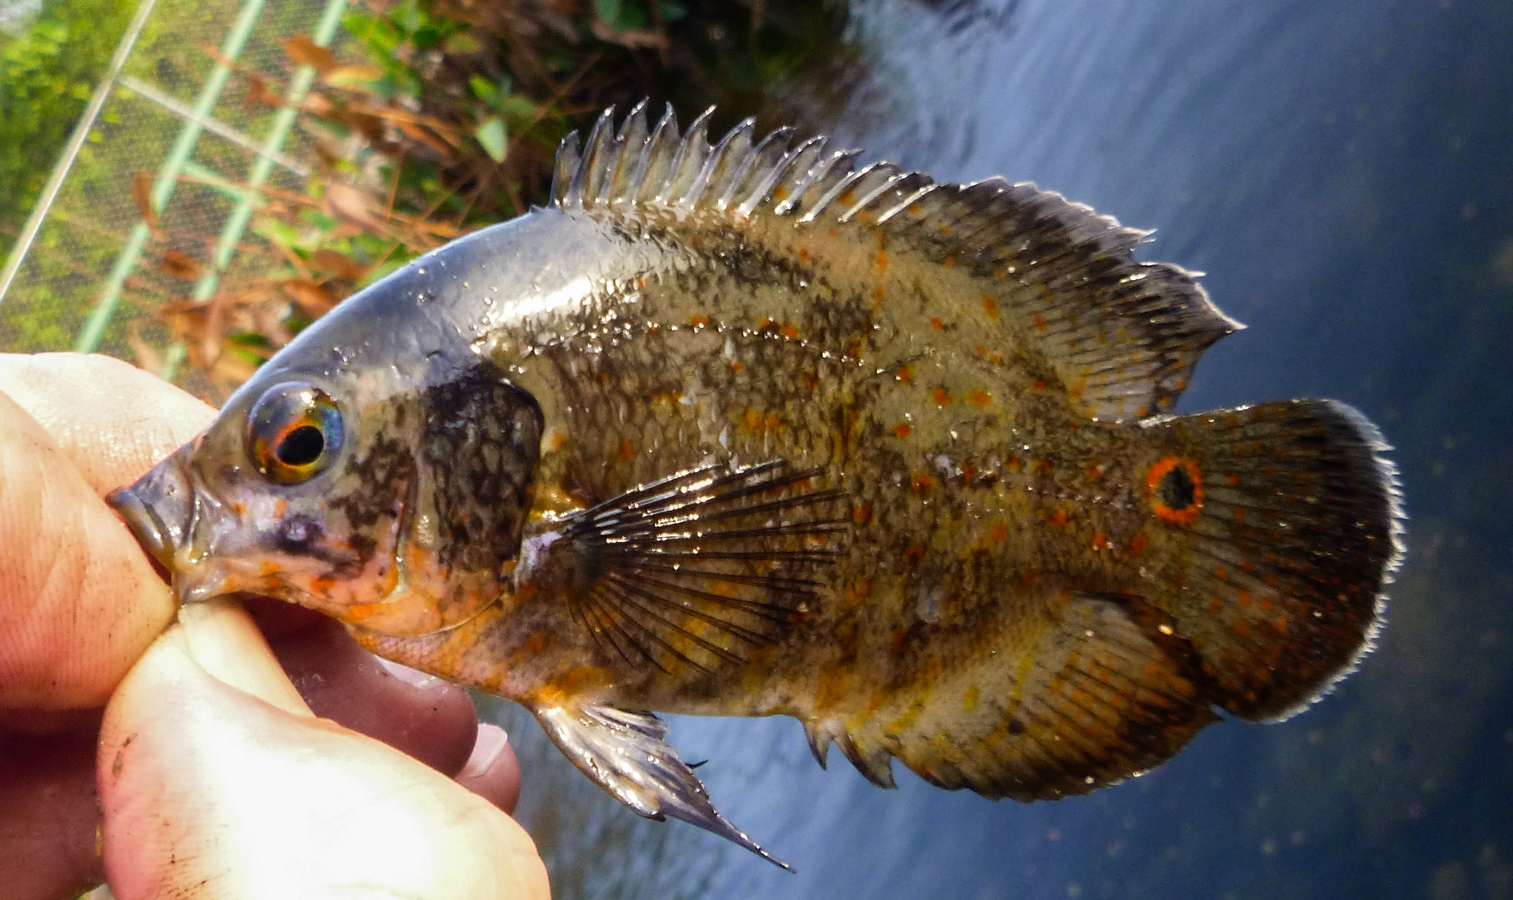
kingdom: Animalia
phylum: Chordata
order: Perciformes
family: Cichlidae
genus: Astronotus
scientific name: Astronotus ocellatus
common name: Oscar
